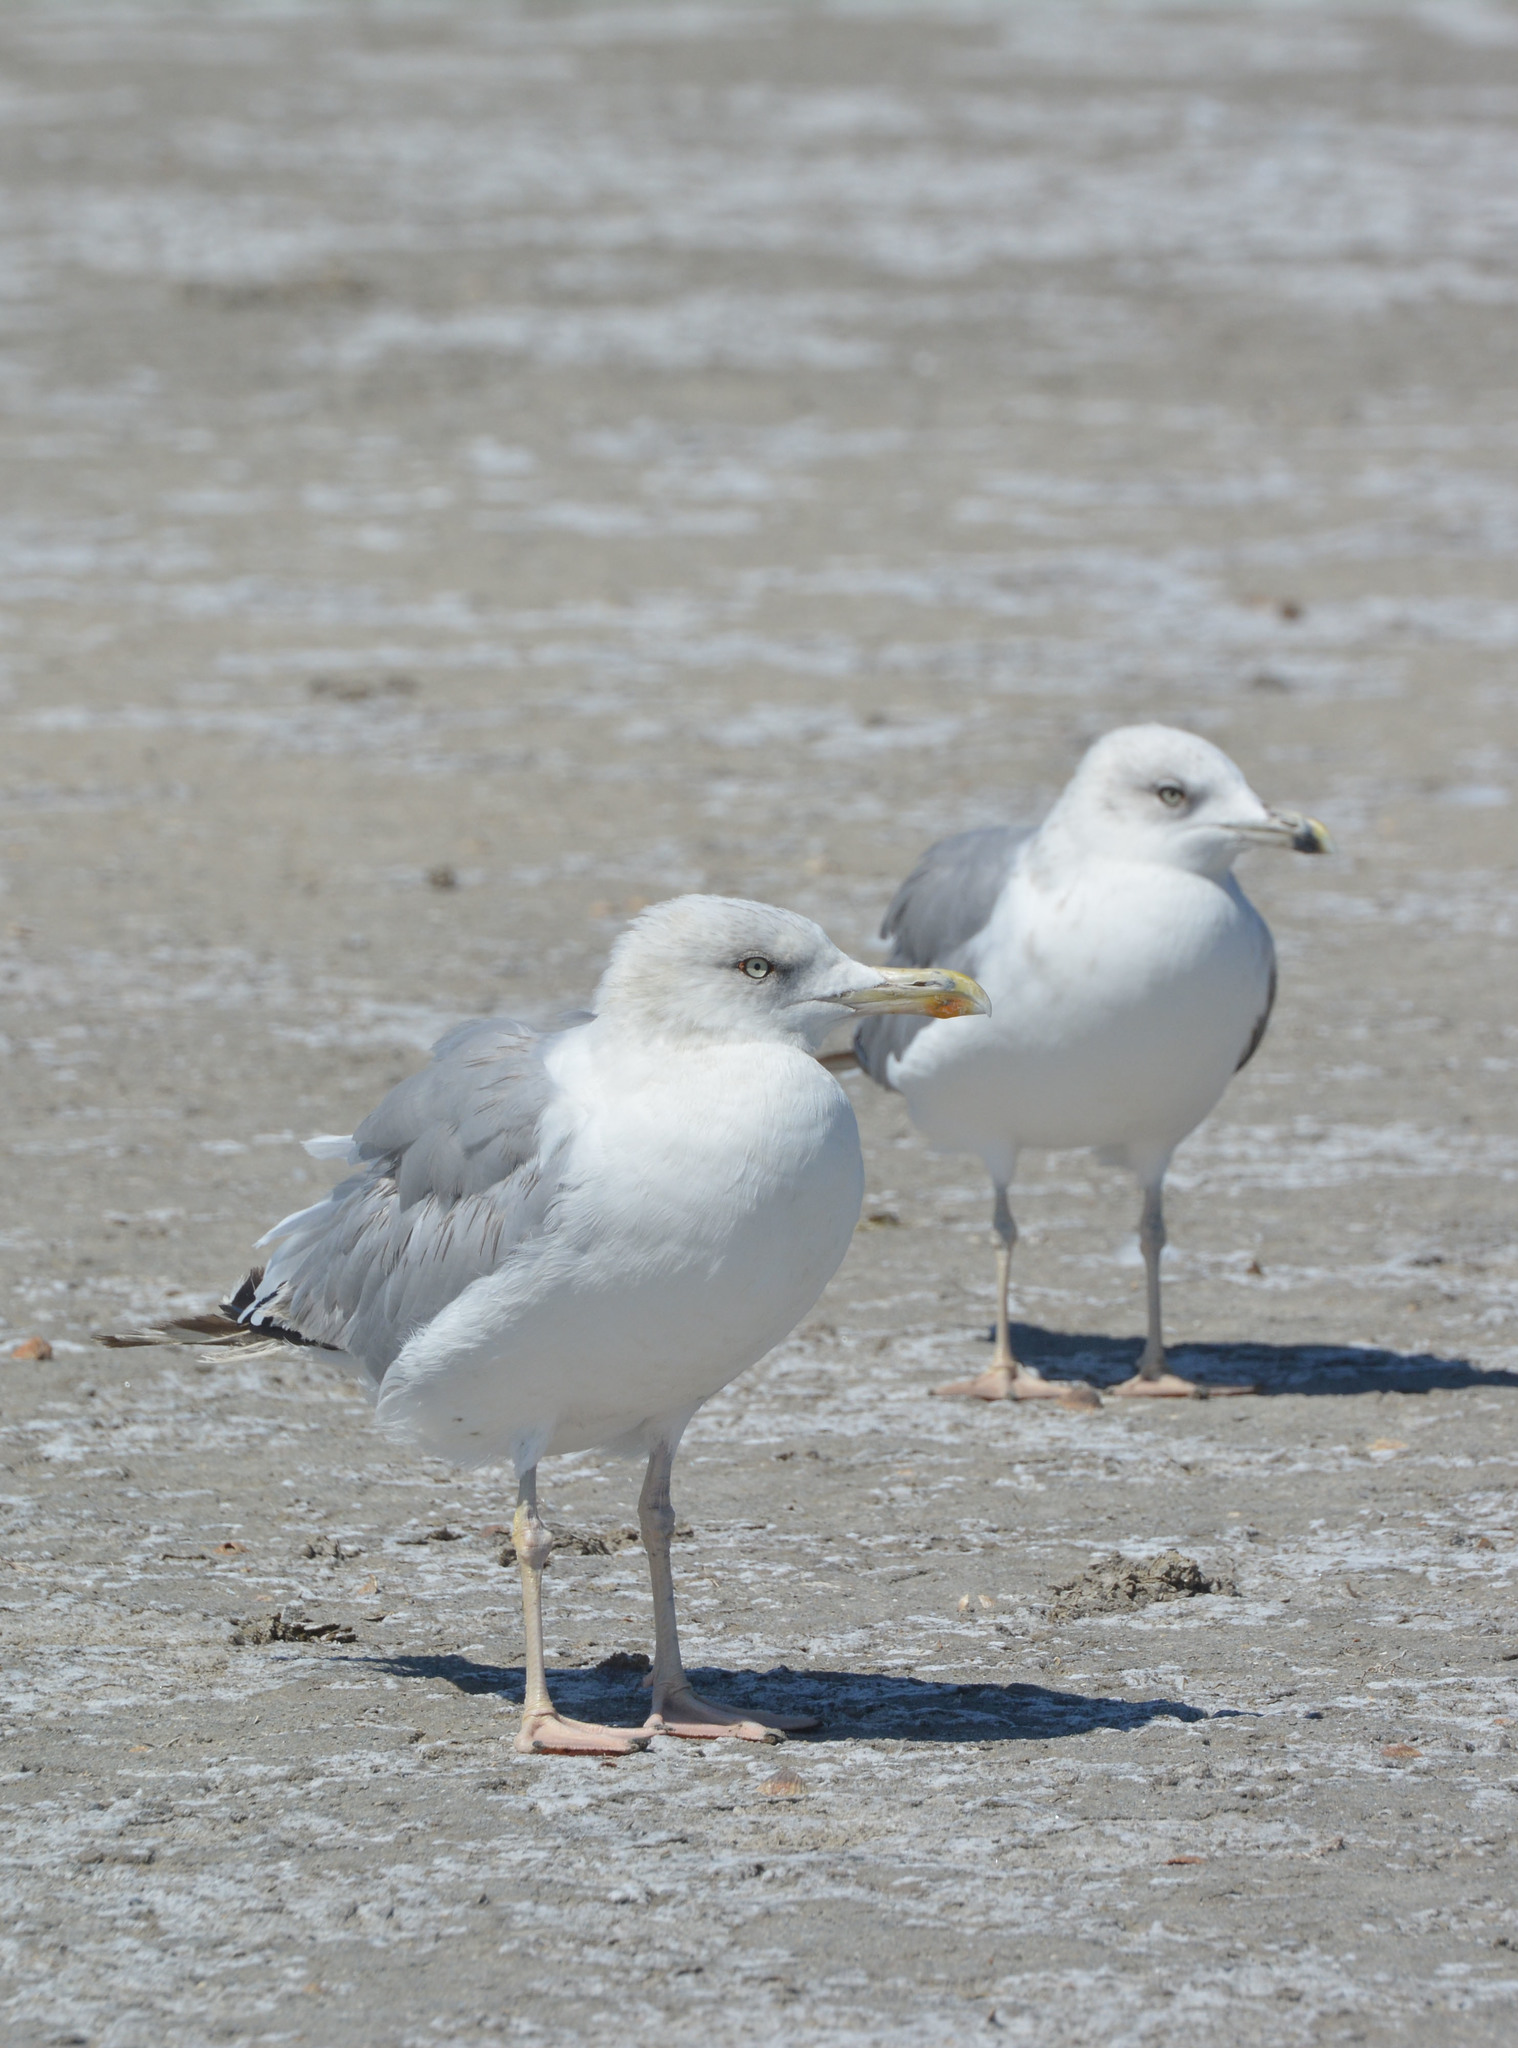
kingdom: Animalia
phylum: Chordata
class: Aves
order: Charadriiformes
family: Laridae
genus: Larus
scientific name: Larus michahellis
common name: Yellow-legged gull
